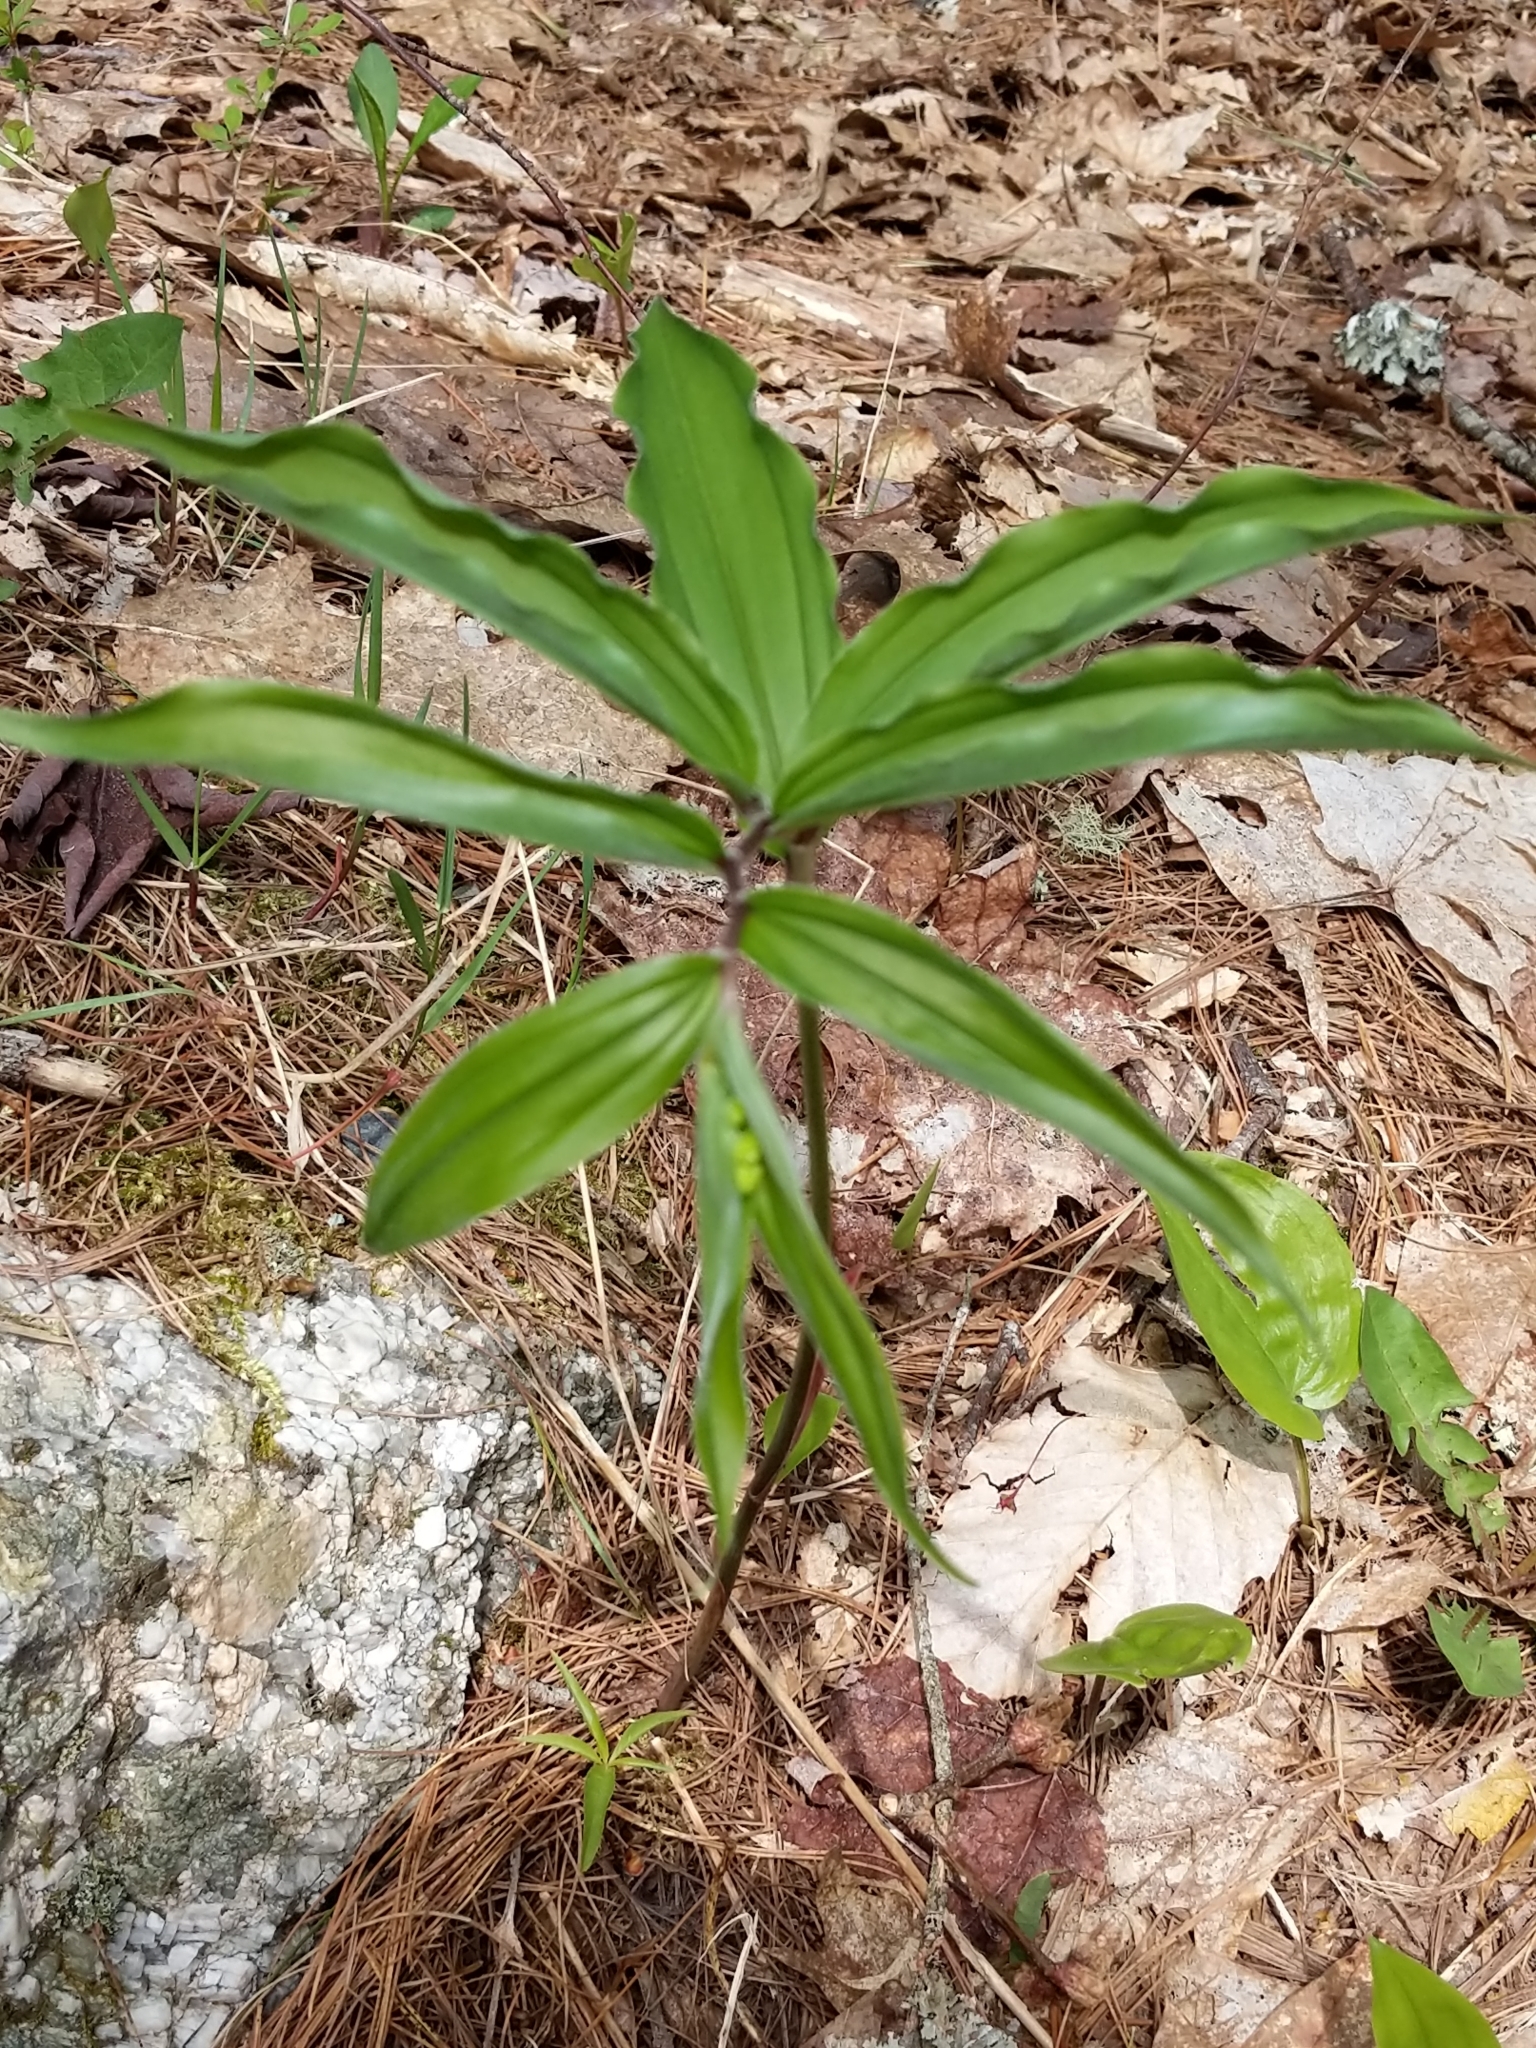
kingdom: Plantae
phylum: Tracheophyta
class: Liliopsida
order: Asparagales
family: Asparagaceae
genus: Maianthemum
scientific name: Maianthemum racemosum
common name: False spikenard
